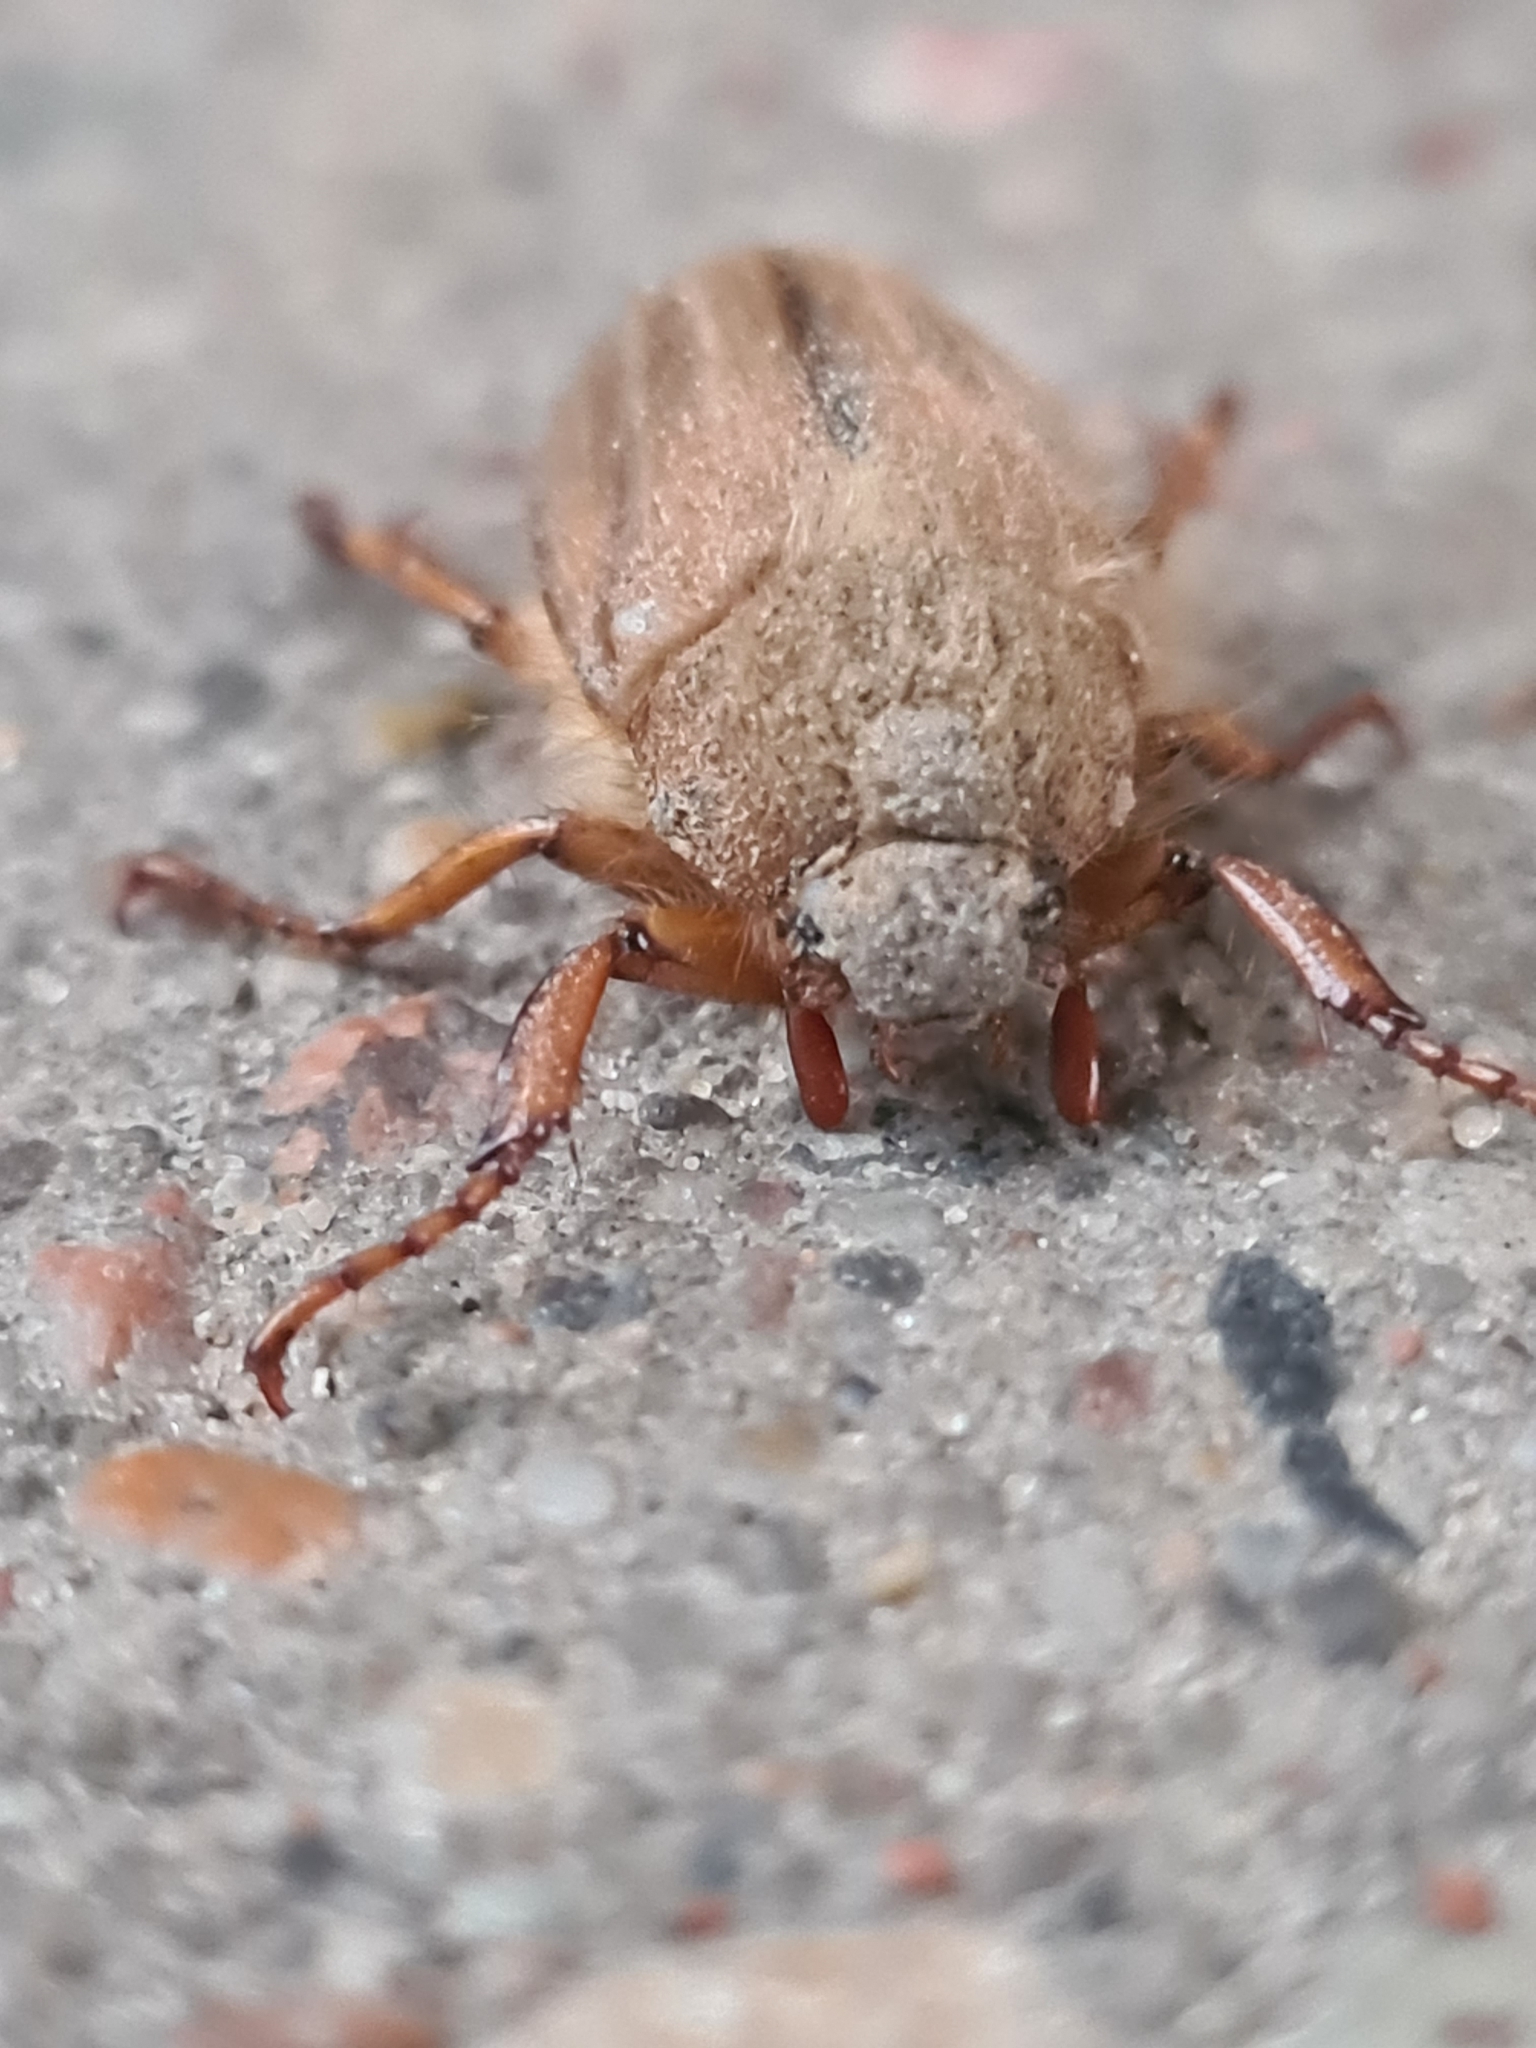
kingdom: Animalia
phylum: Arthropoda
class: Insecta
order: Coleoptera
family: Scarabaeidae
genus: Amphimallon
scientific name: Amphimallon solstitiale
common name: Summer chafer
